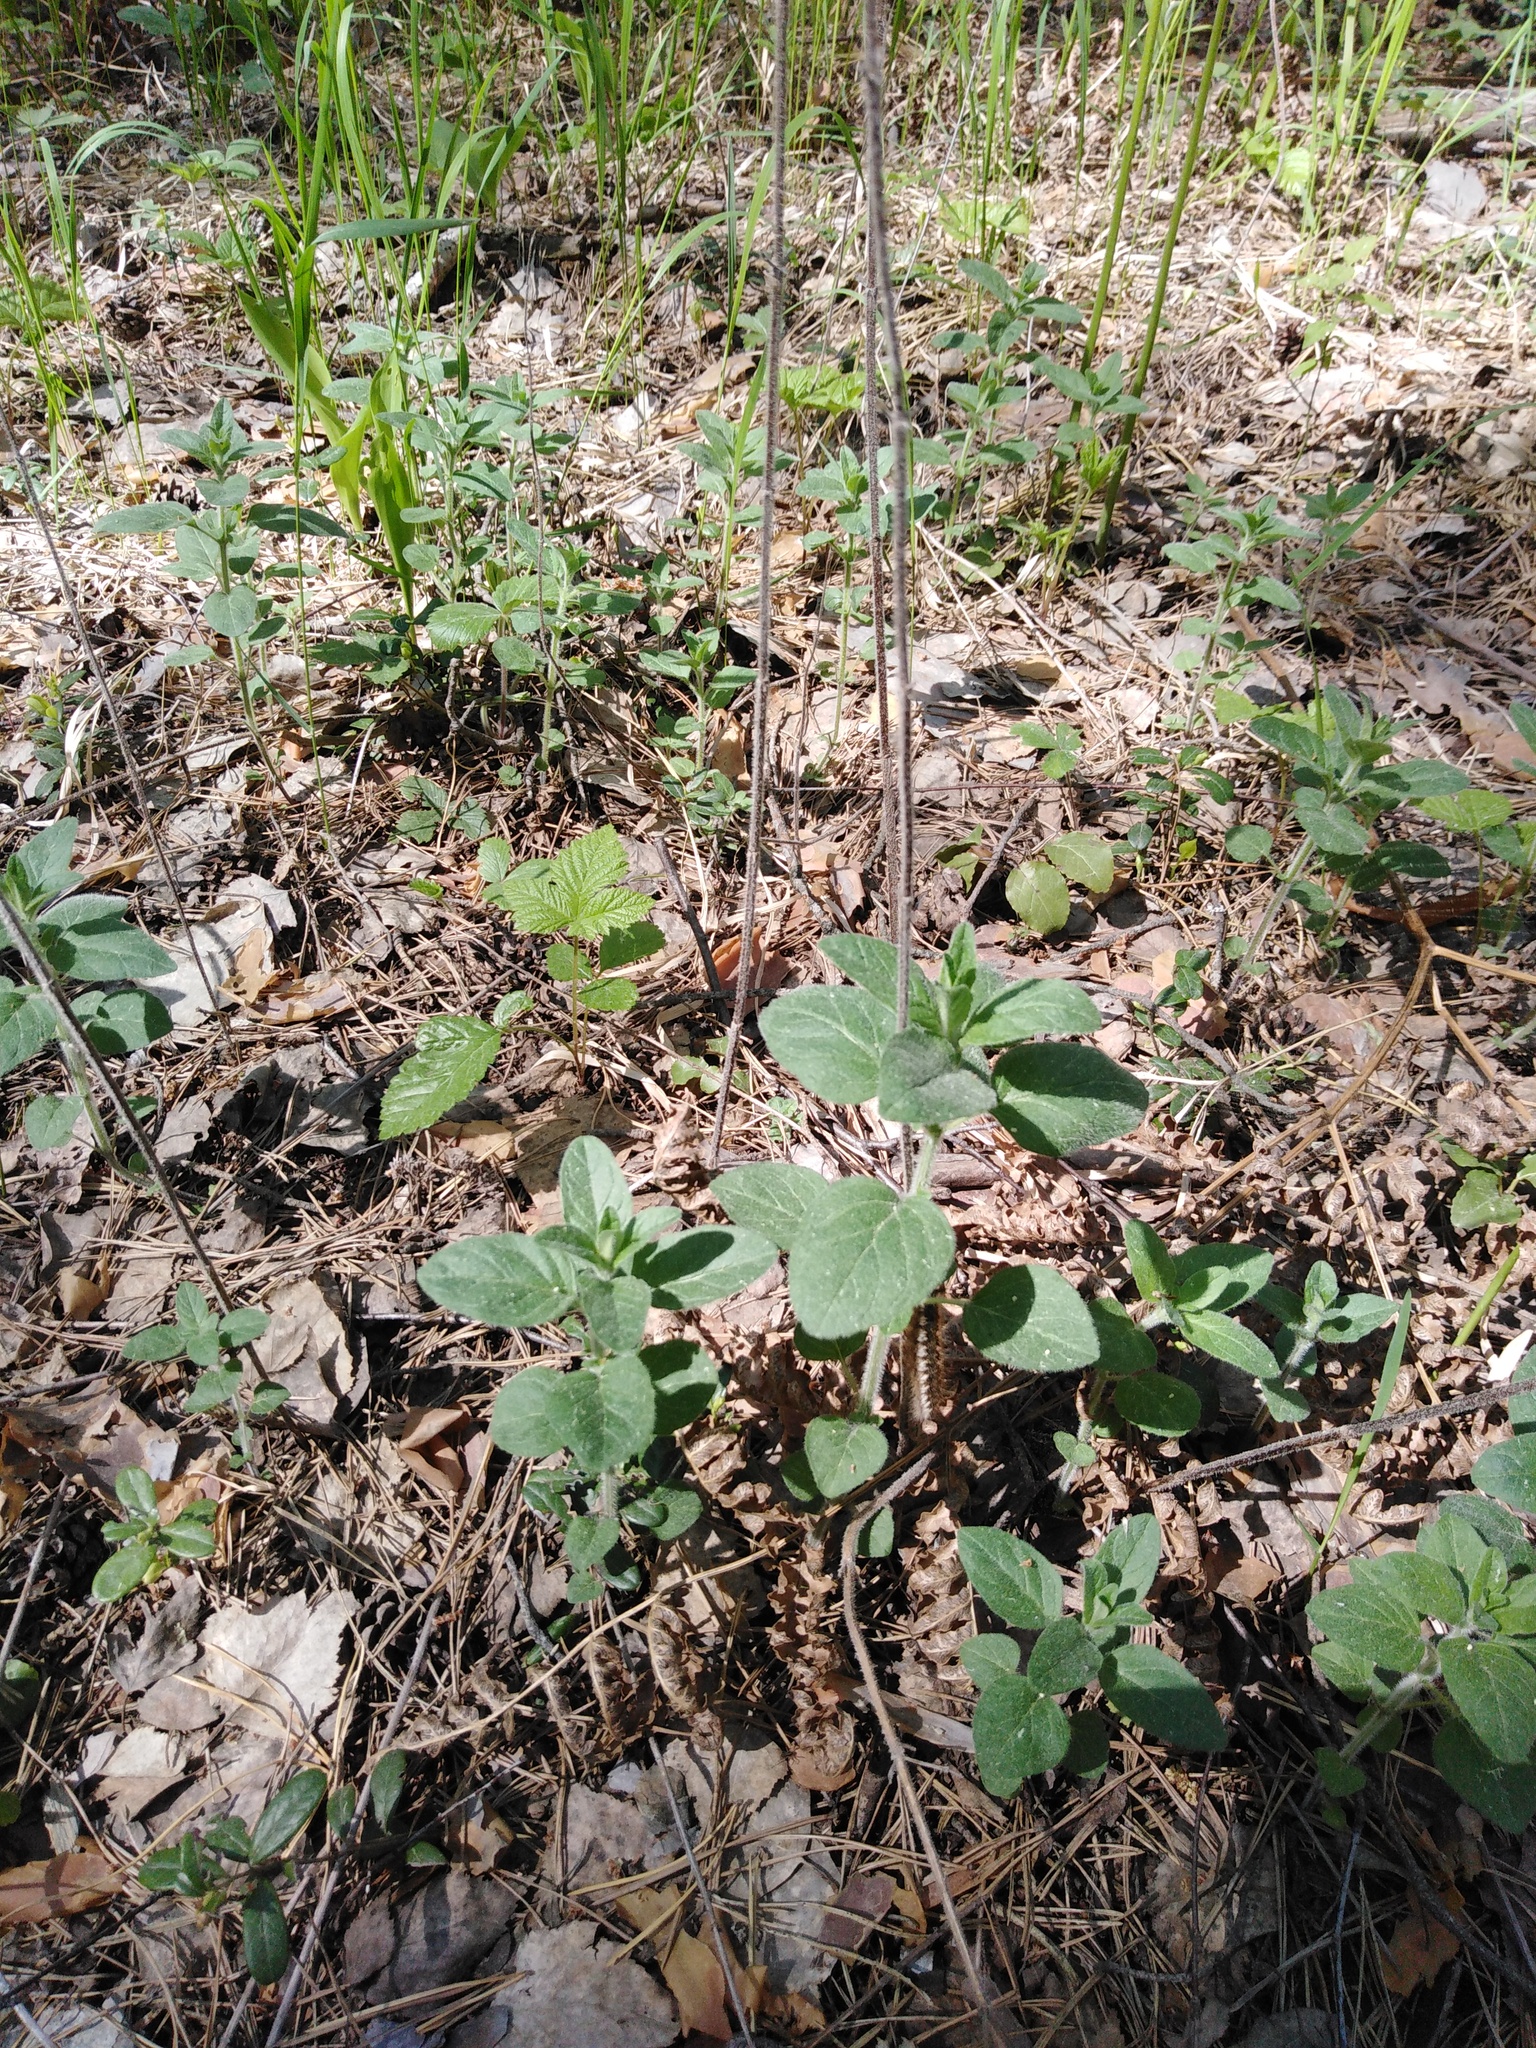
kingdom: Plantae
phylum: Tracheophyta
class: Magnoliopsida
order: Lamiales
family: Lamiaceae
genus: Origanum
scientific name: Origanum vulgare
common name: Wild marjoram
